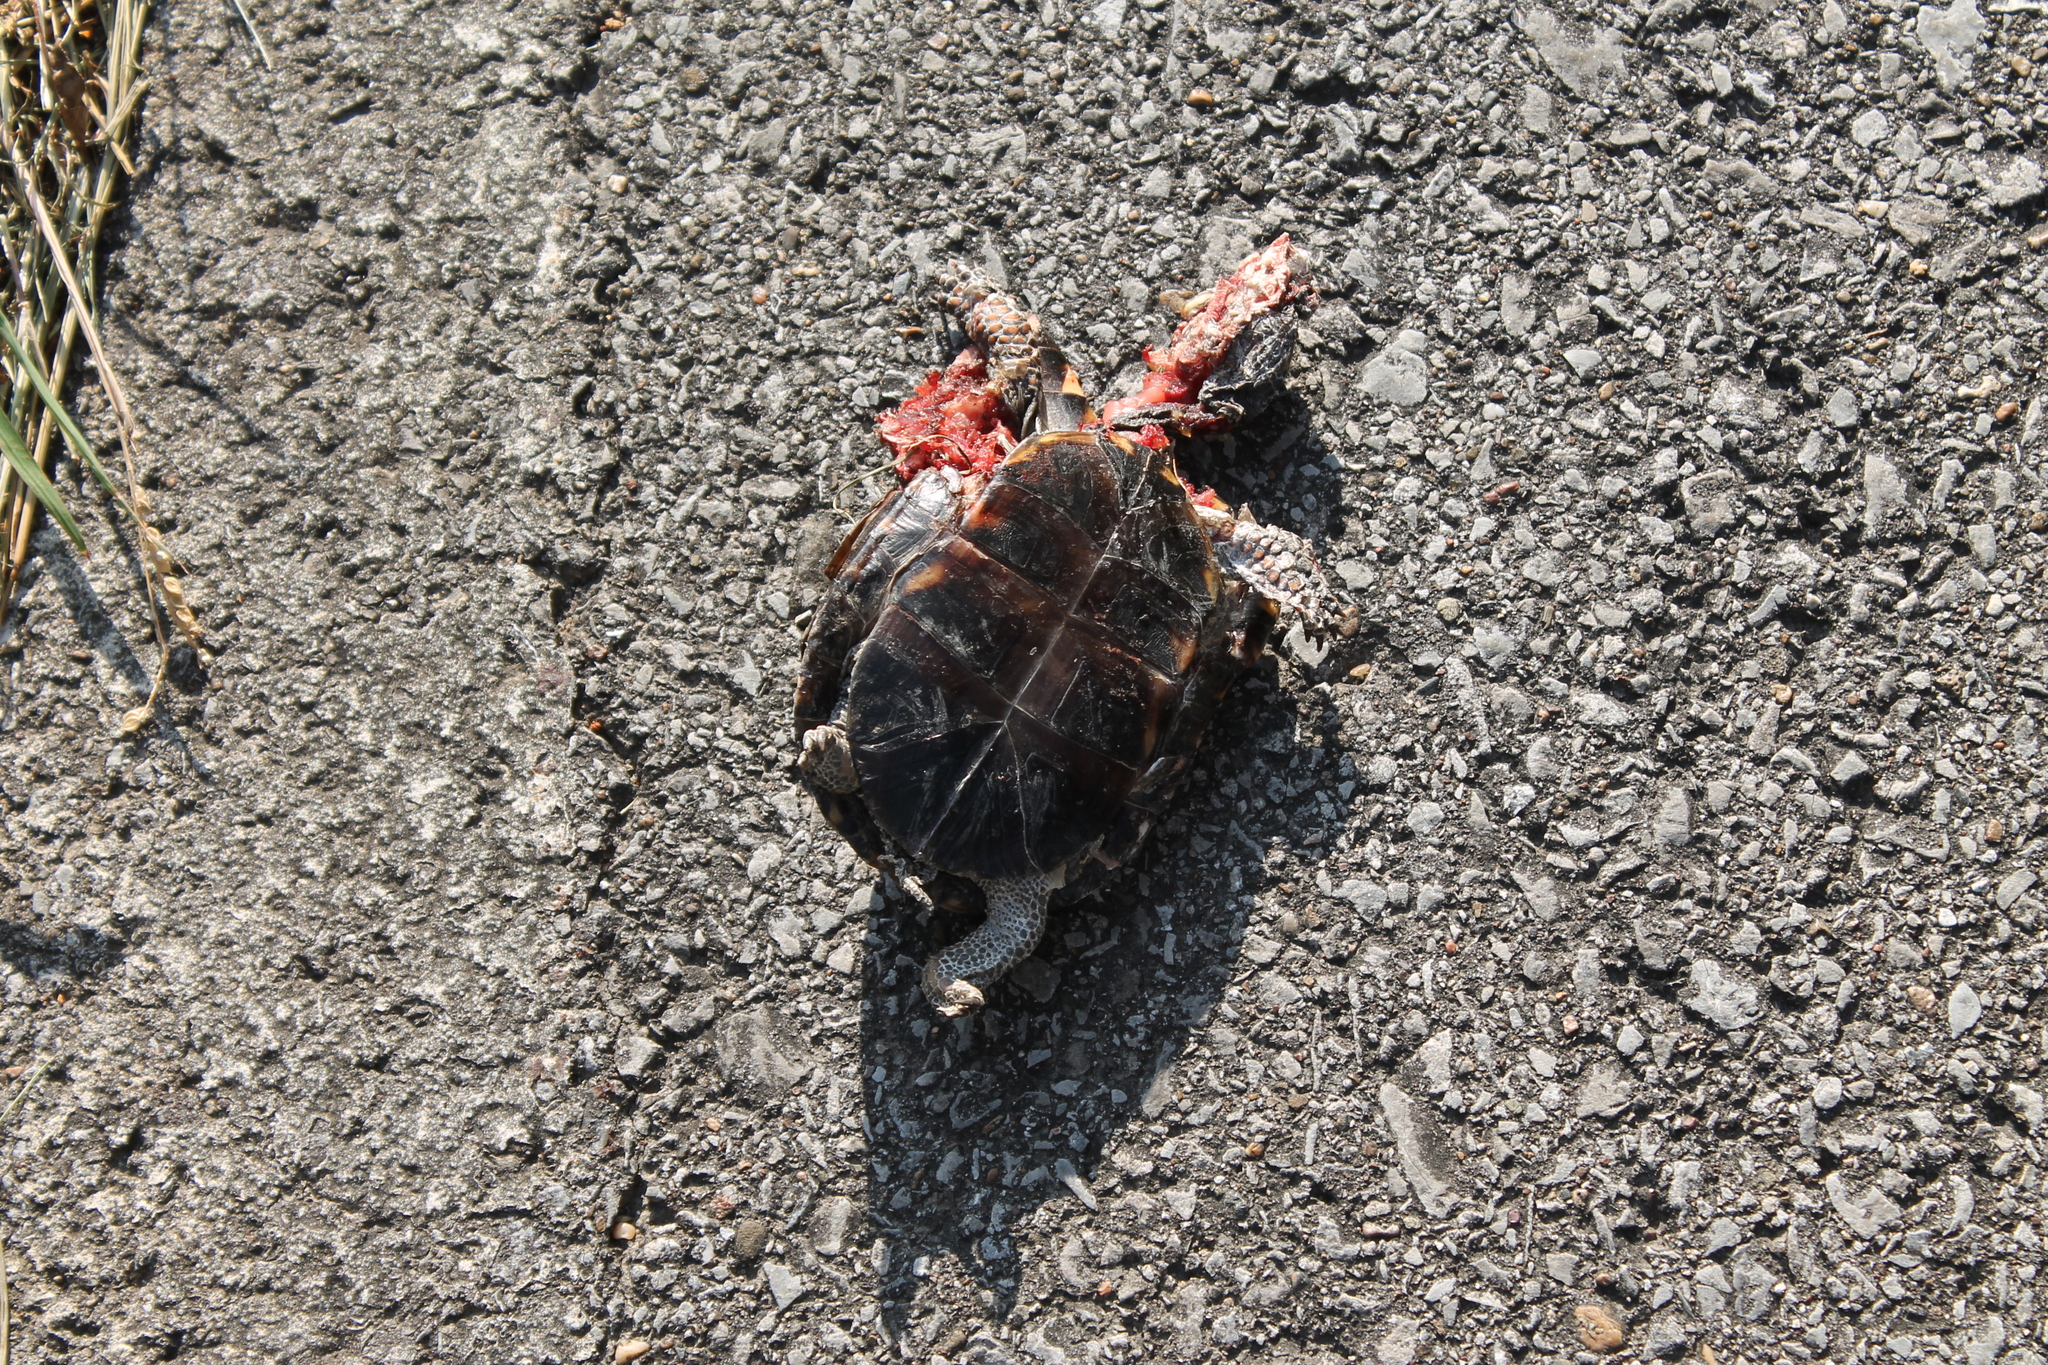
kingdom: Animalia
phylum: Chordata
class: Testudines
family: Emydidae
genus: Terrapene
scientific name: Terrapene carolina
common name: Common box turtle
